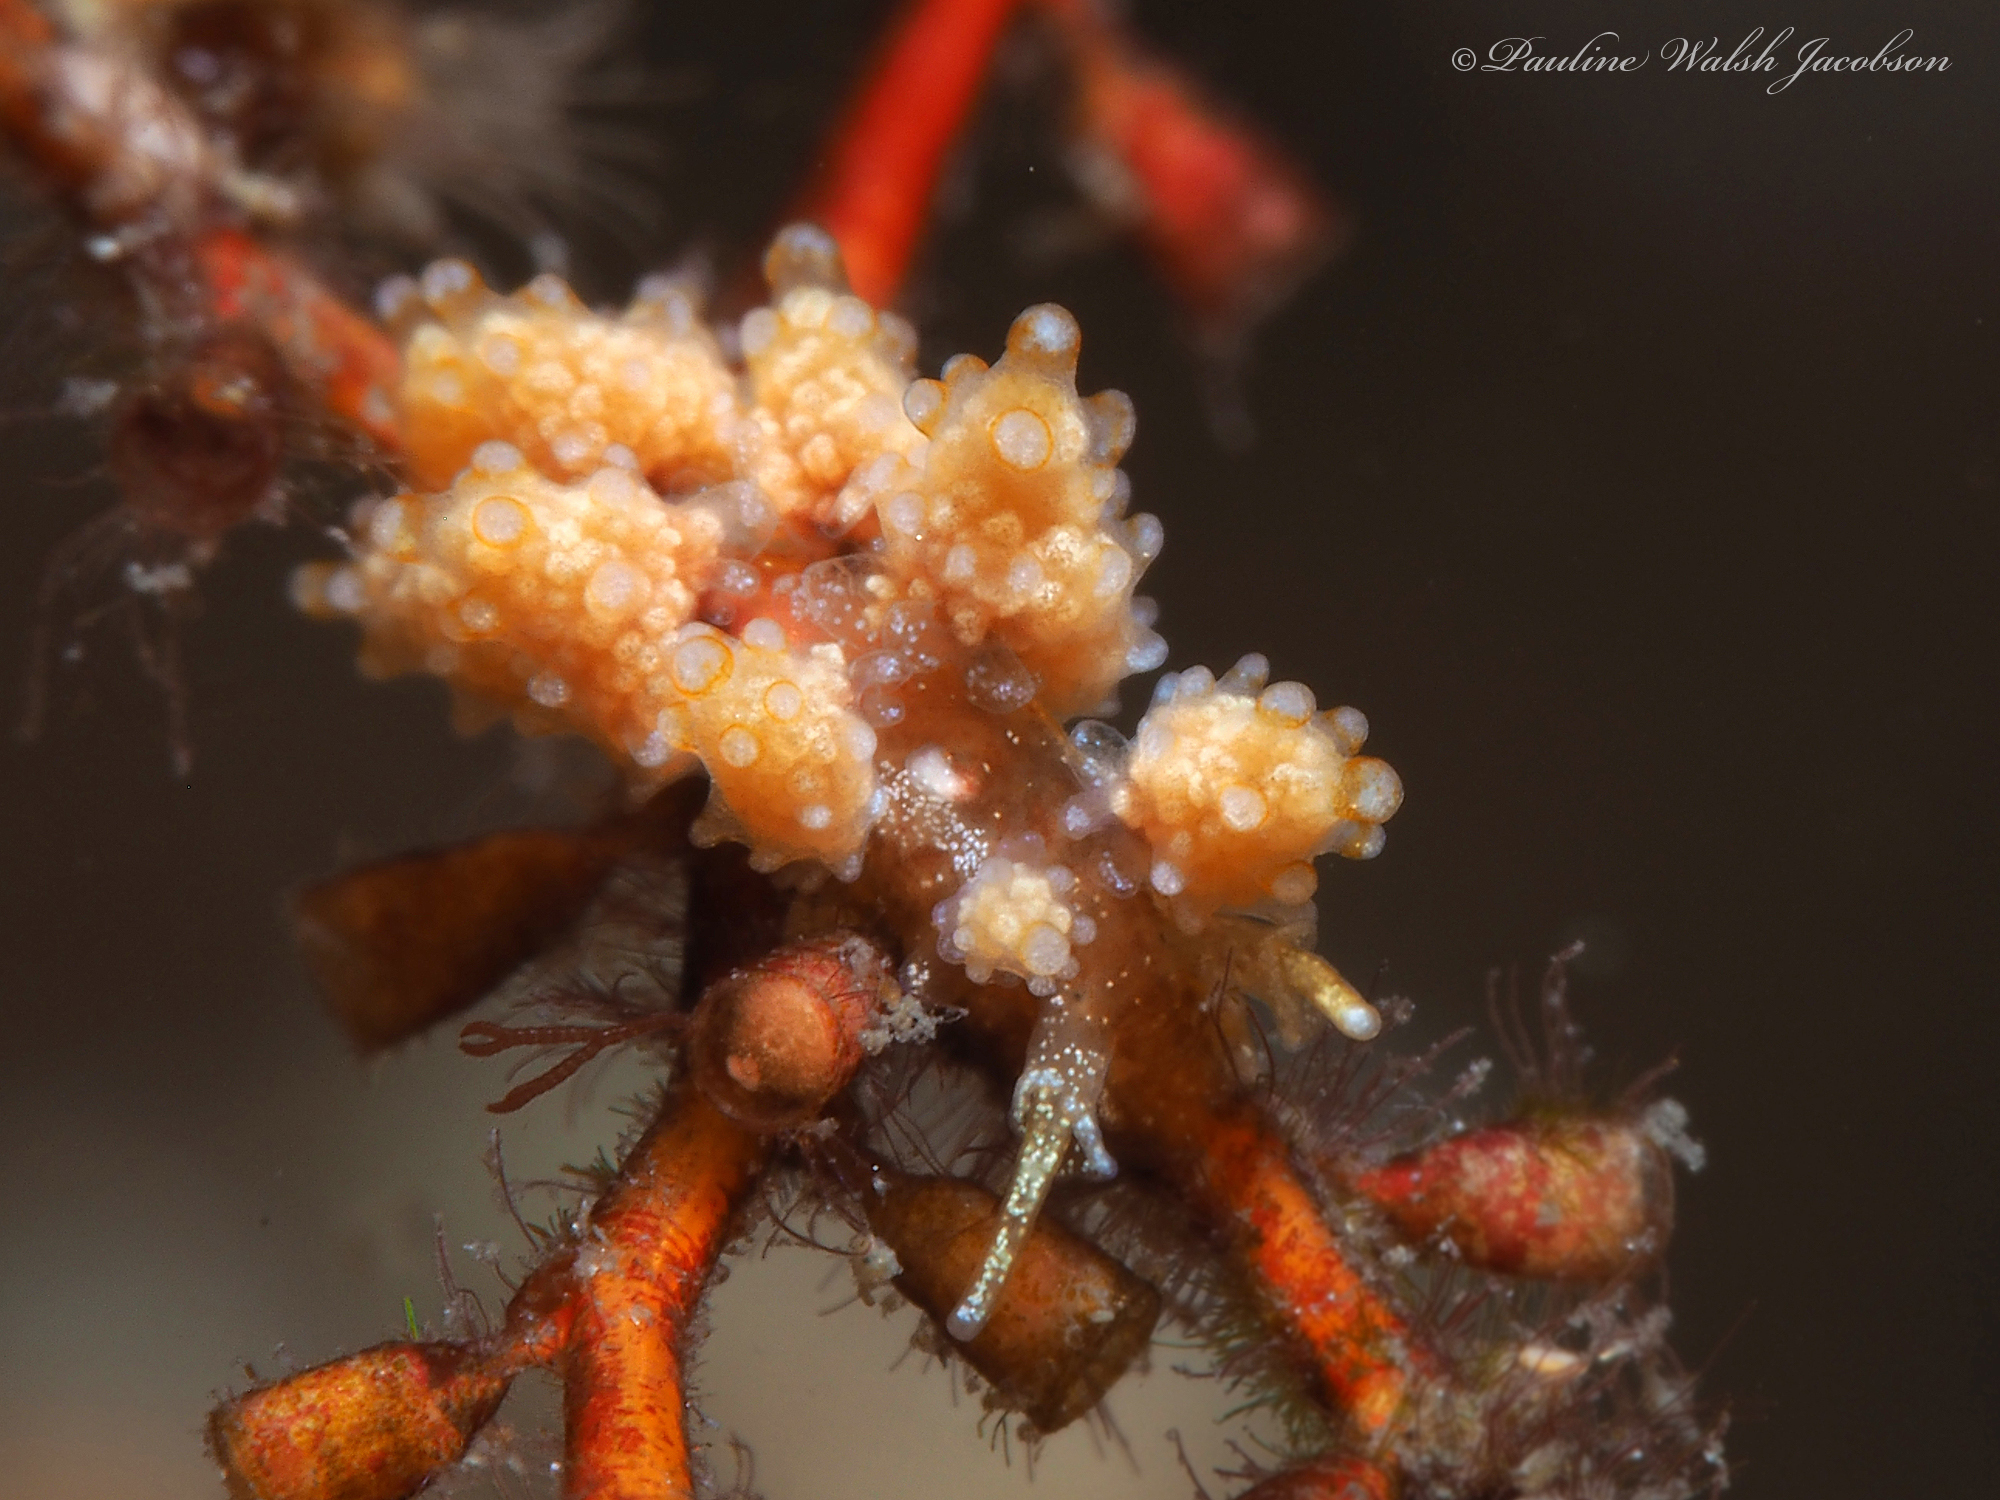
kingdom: Animalia
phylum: Mollusca
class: Gastropoda
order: Nudibranchia
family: Dotidae
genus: Doto
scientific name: Doto torrelavega
